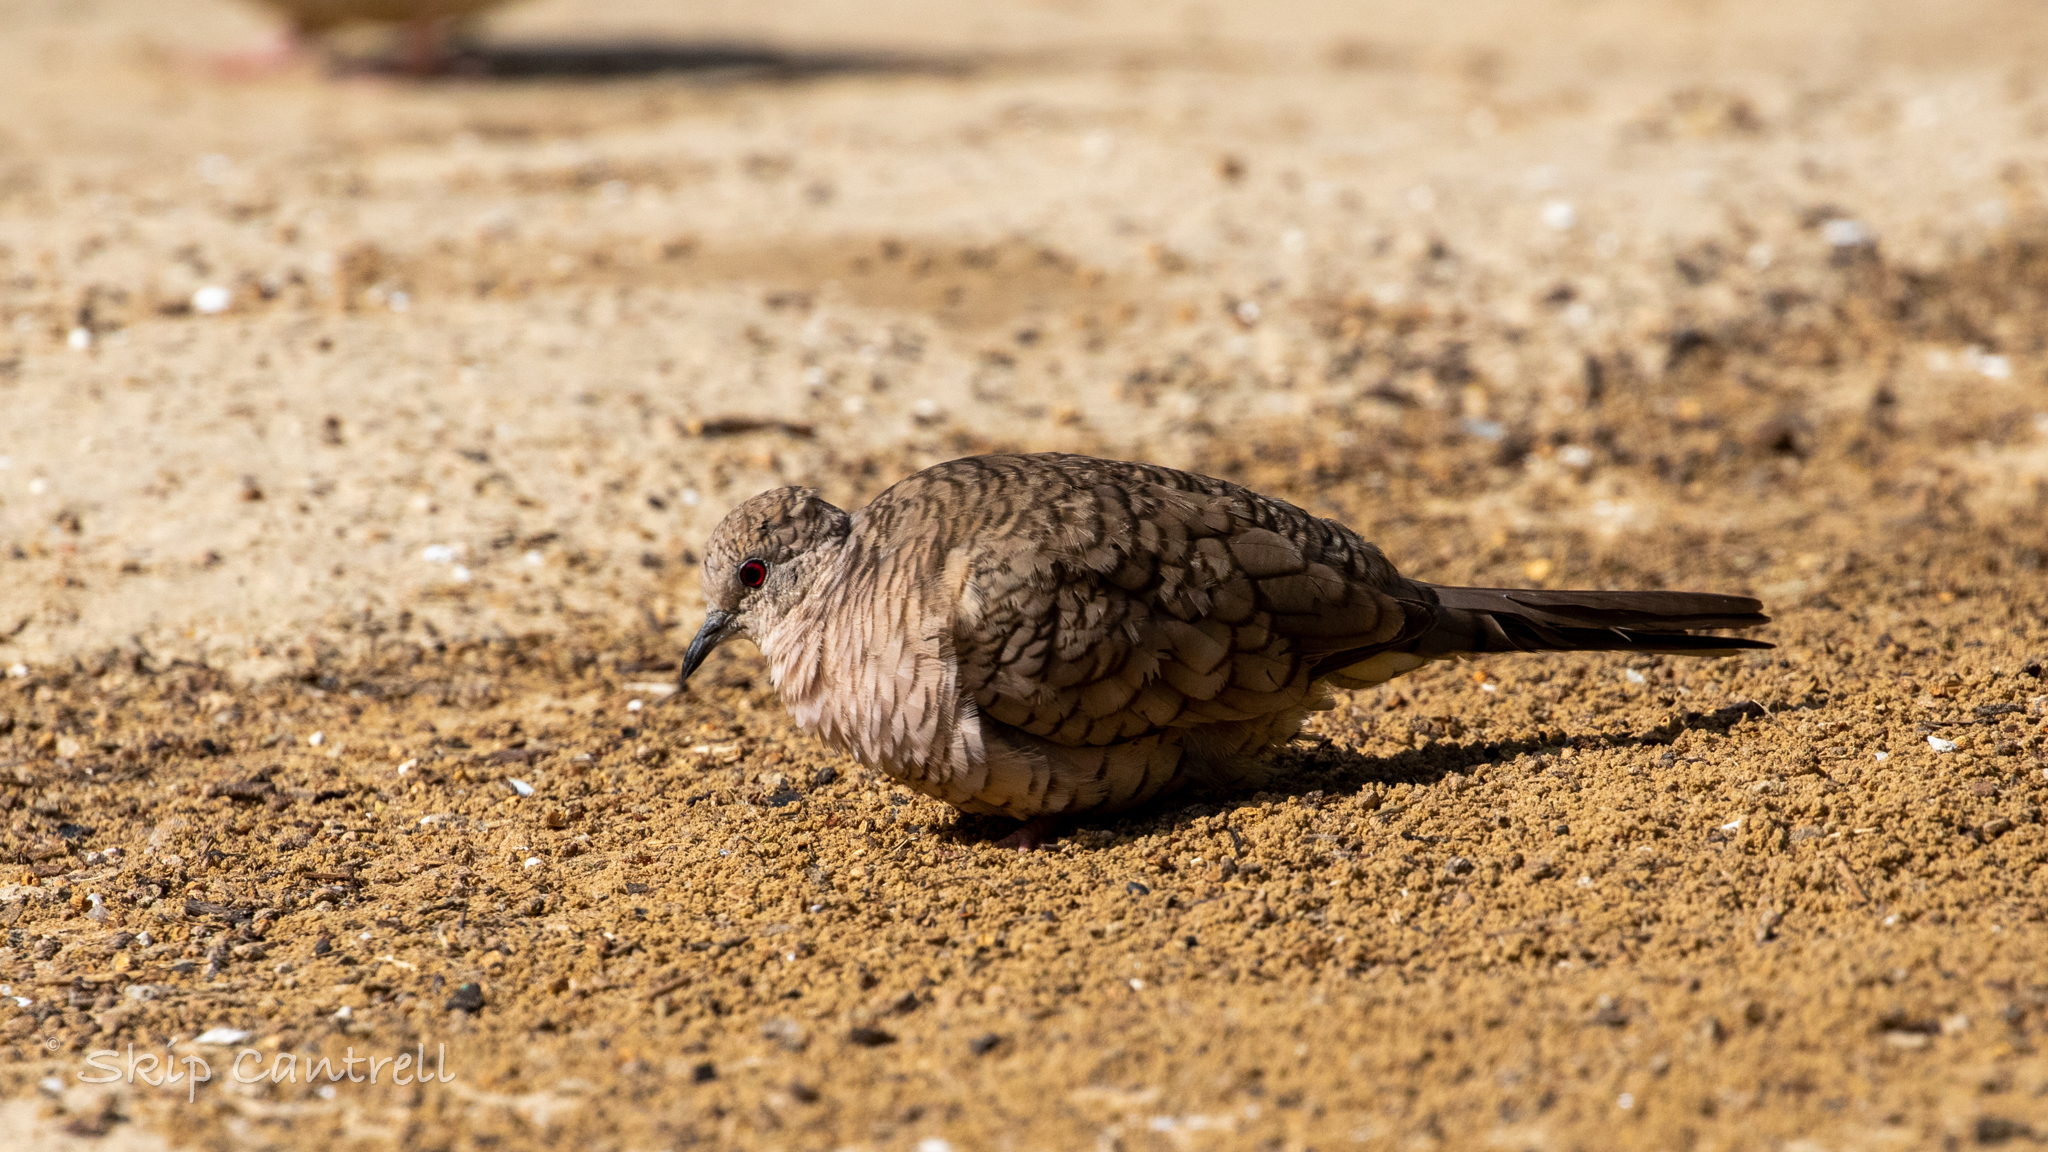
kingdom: Animalia
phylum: Chordata
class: Aves
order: Columbiformes
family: Columbidae
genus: Columbina
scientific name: Columbina inca
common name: Inca dove
